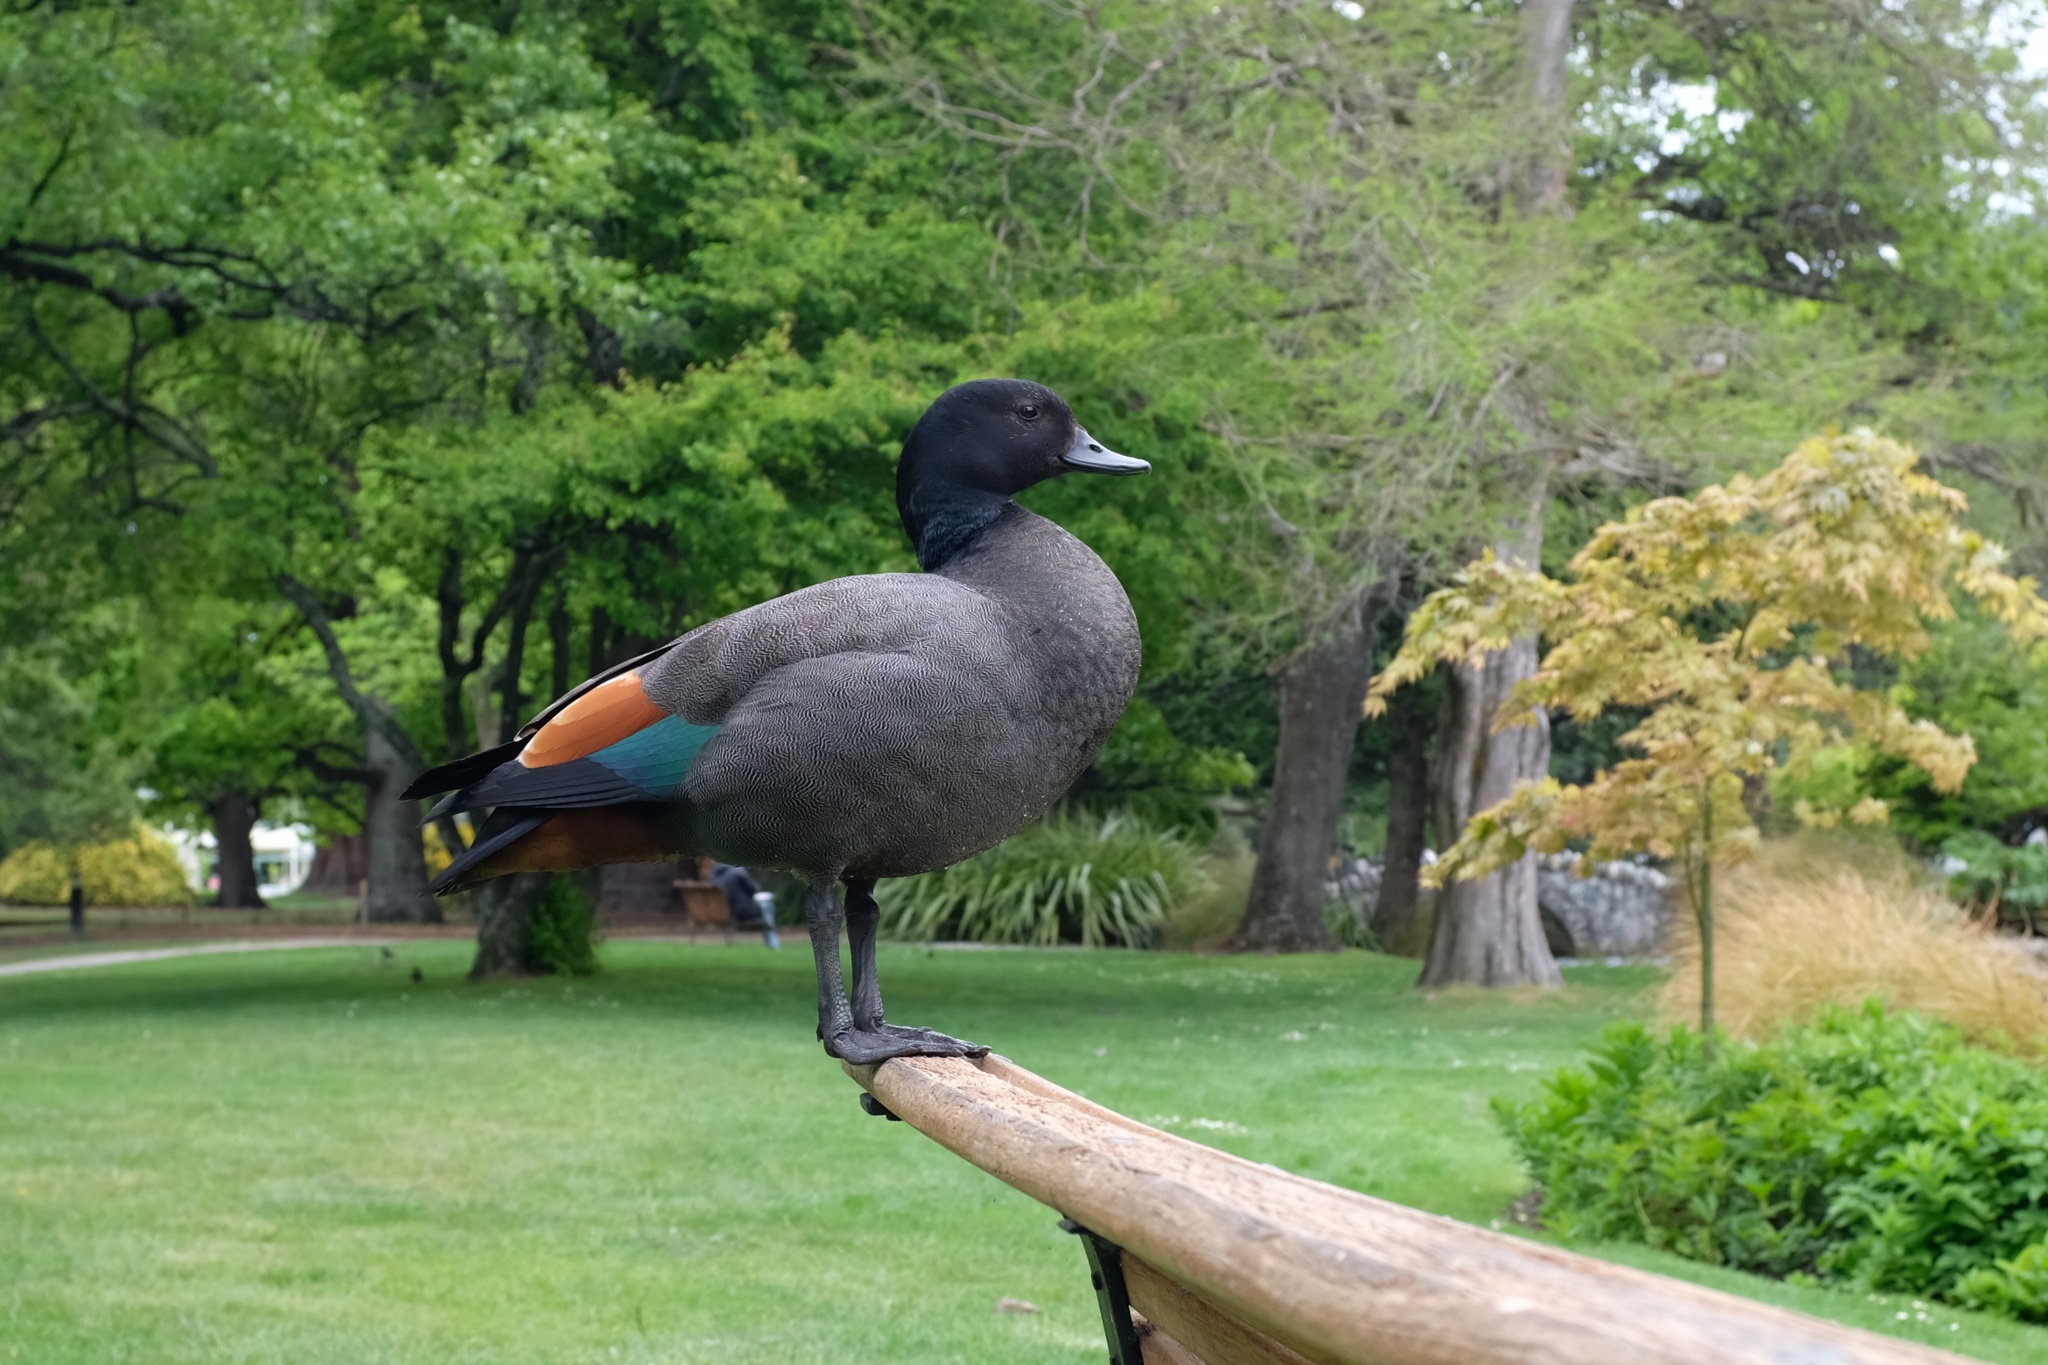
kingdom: Animalia
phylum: Chordata
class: Aves
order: Anseriformes
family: Anatidae
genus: Tadorna
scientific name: Tadorna variegata
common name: Paradise shelduck
